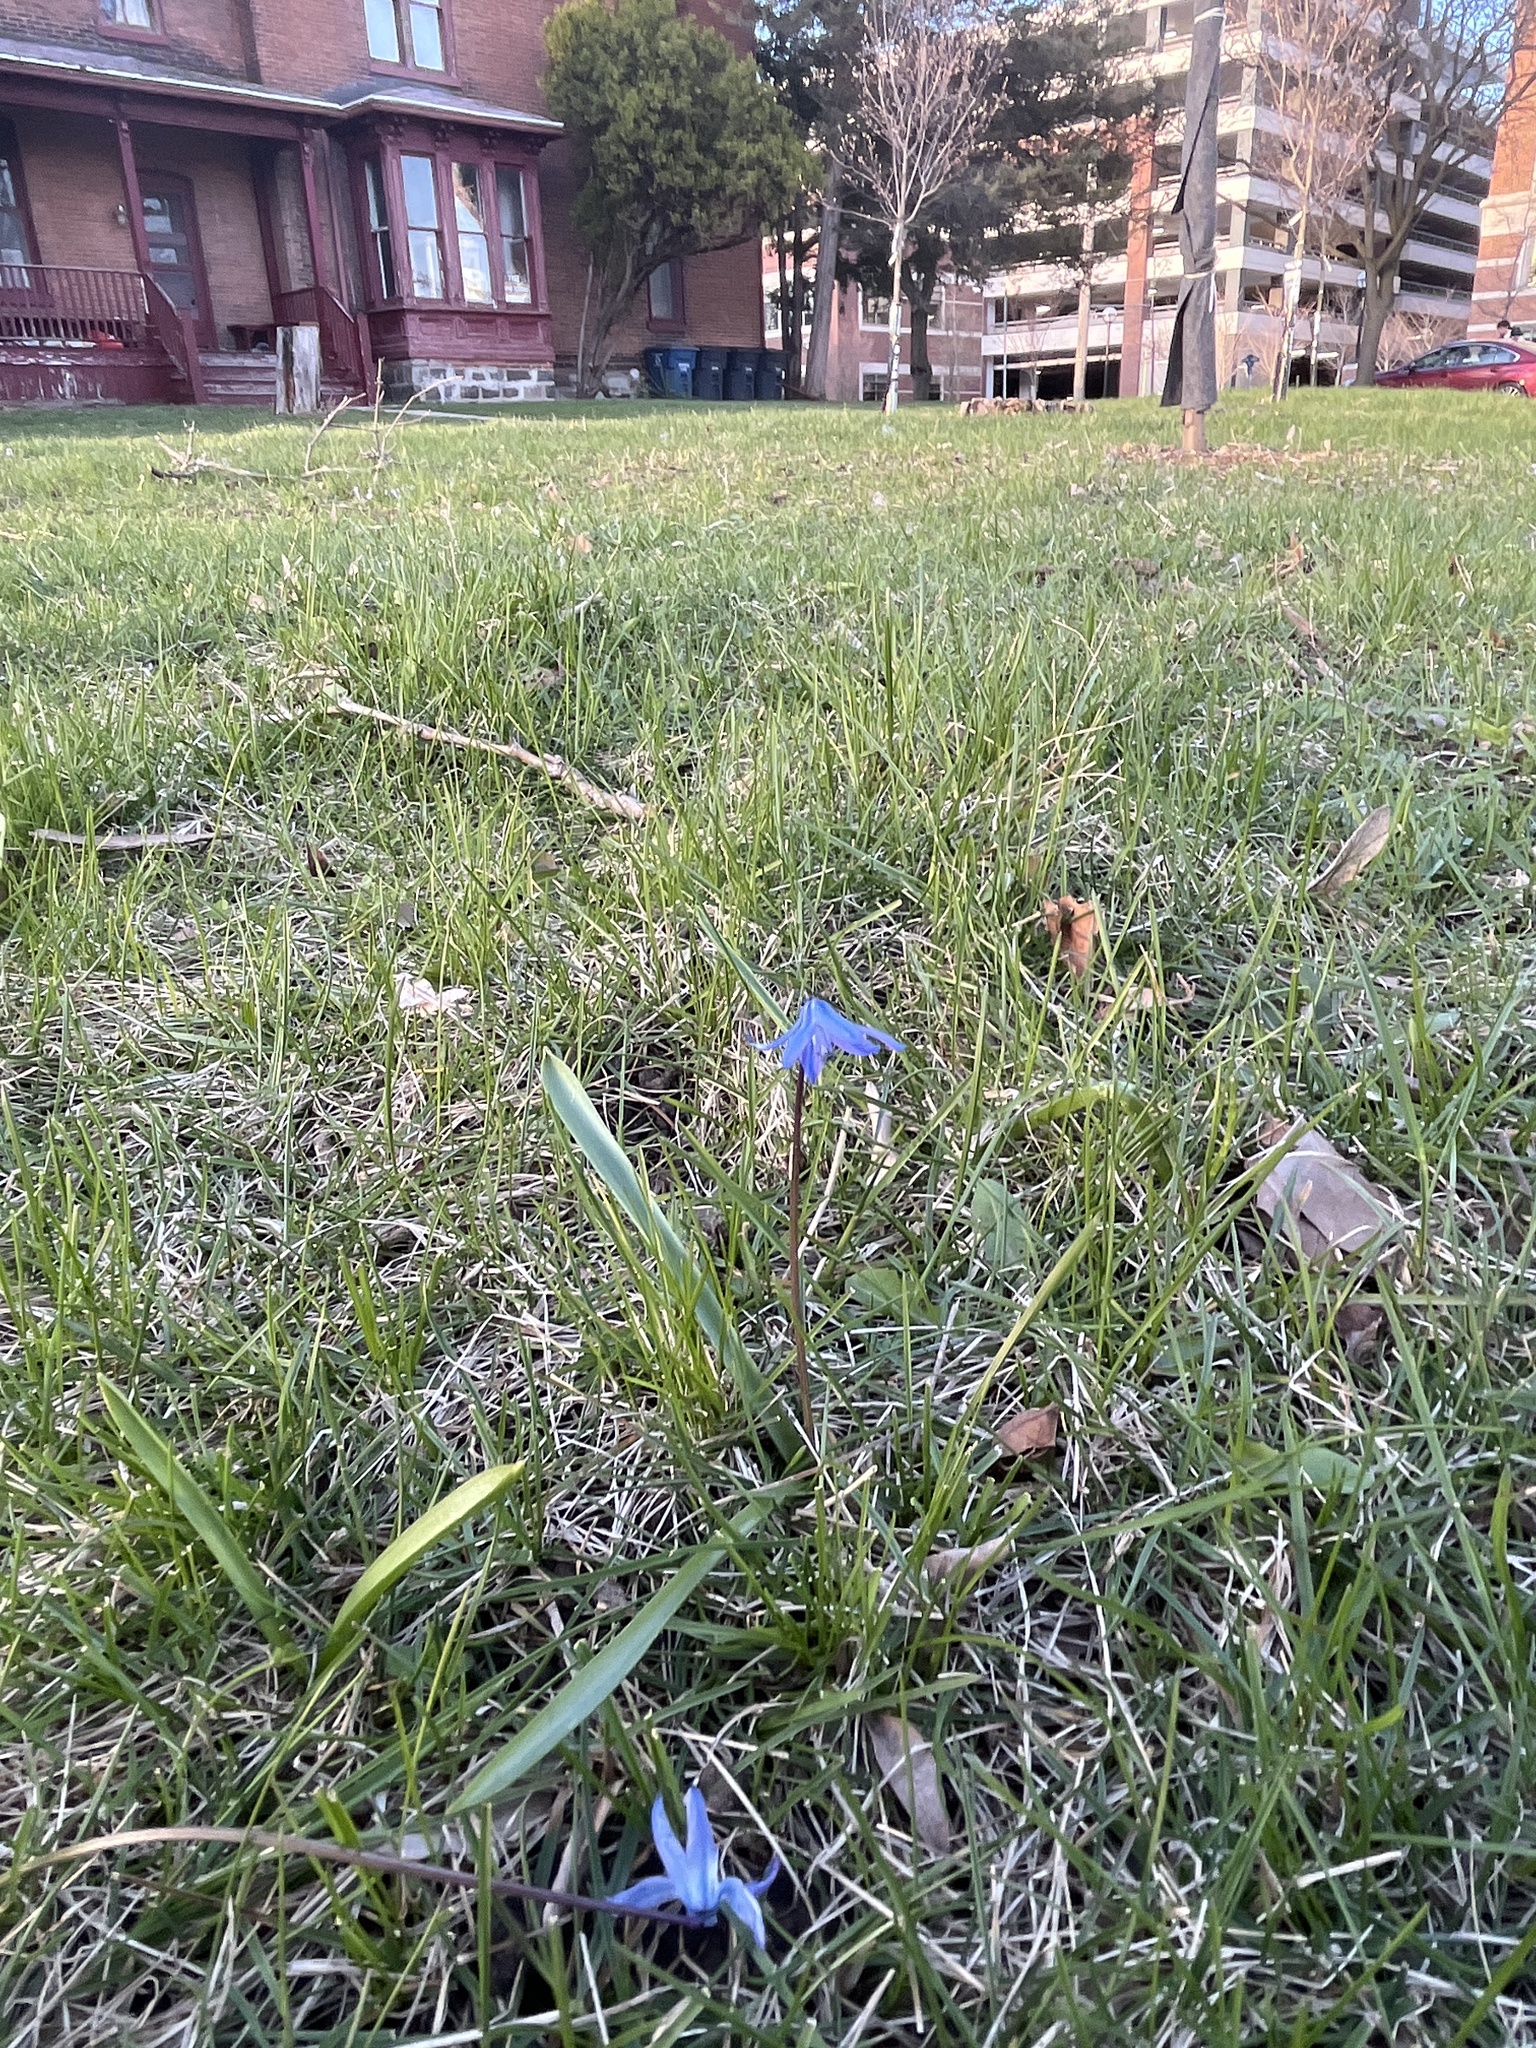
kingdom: Plantae
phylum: Tracheophyta
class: Liliopsida
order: Asparagales
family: Asparagaceae
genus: Scilla
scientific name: Scilla siberica
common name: Siberian squill
